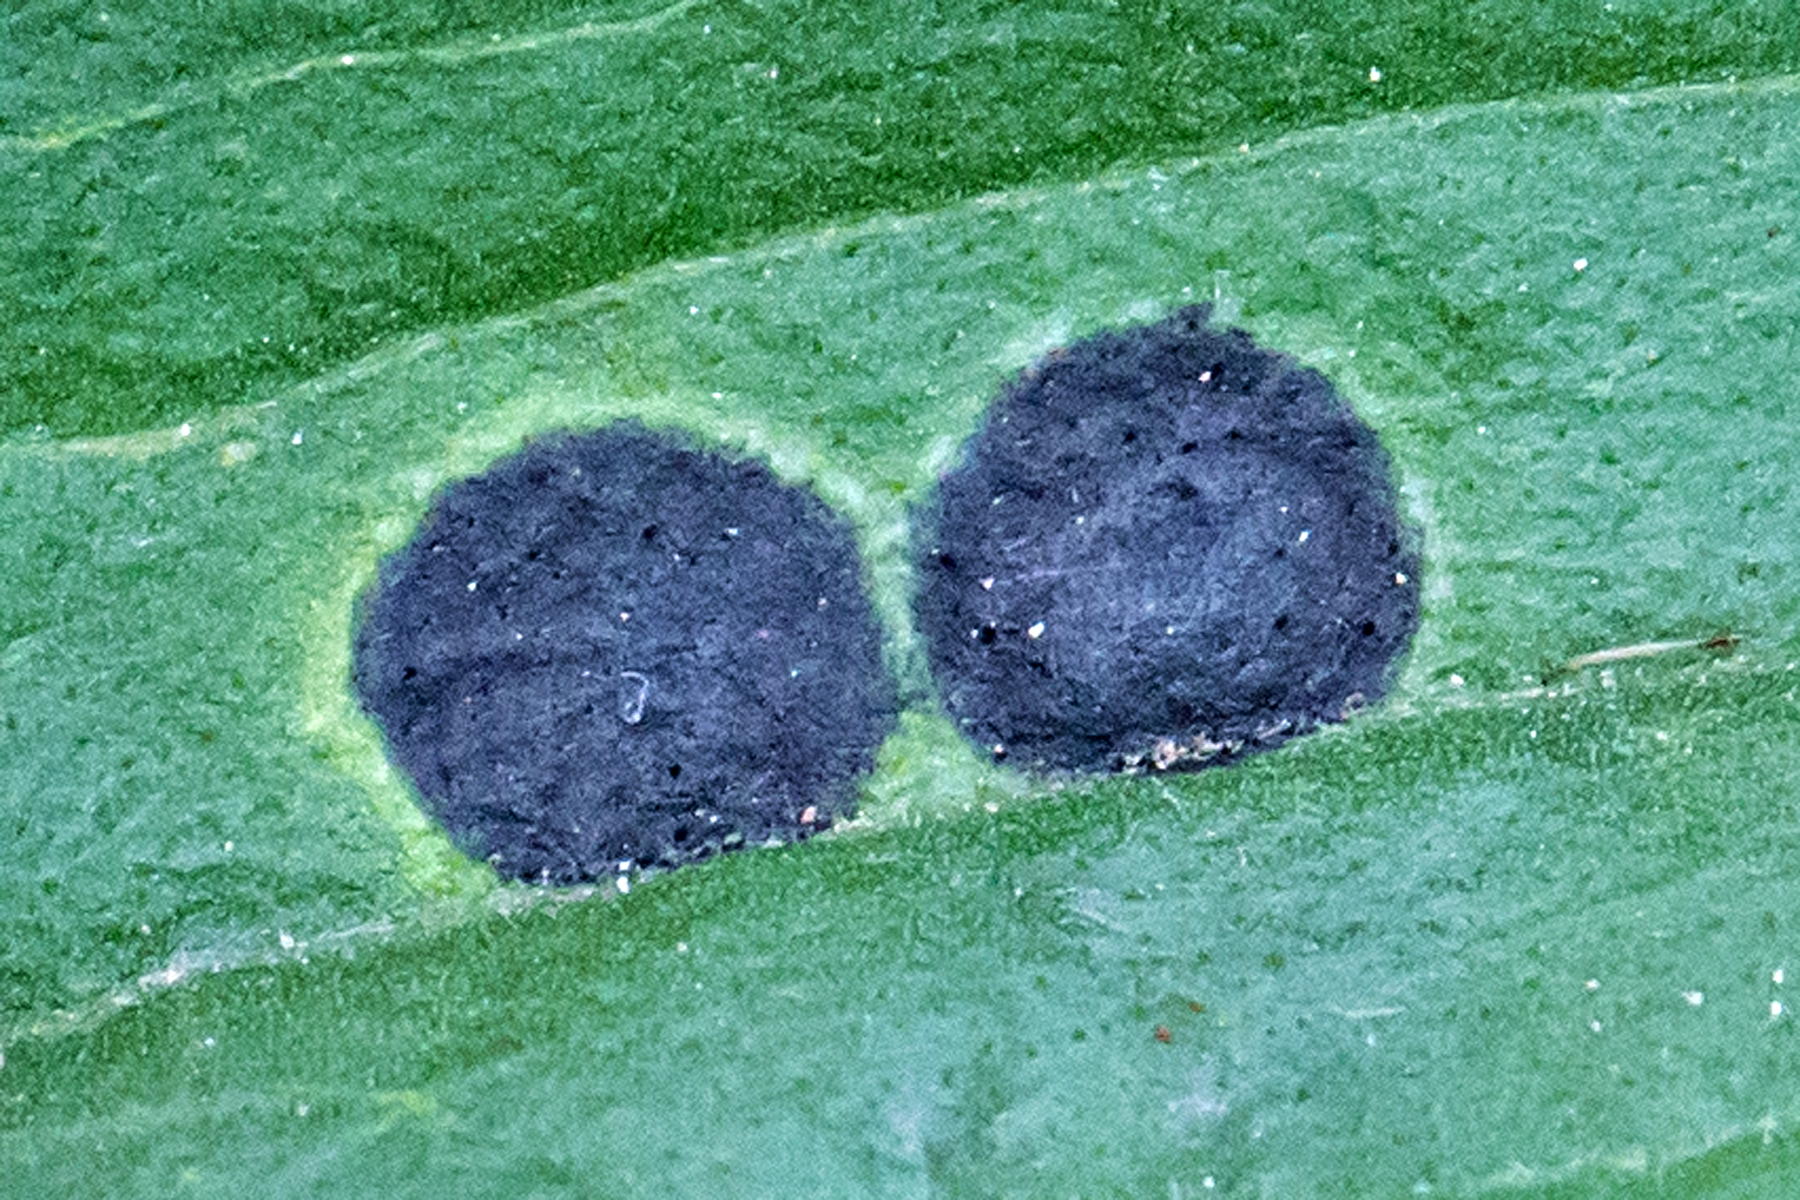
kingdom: Animalia
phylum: Arthropoda
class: Insecta
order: Diptera
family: Cecidomyiidae
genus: Asteromyia
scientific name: Asteromyia euthamiae
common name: Euthamia leaf gall midge
